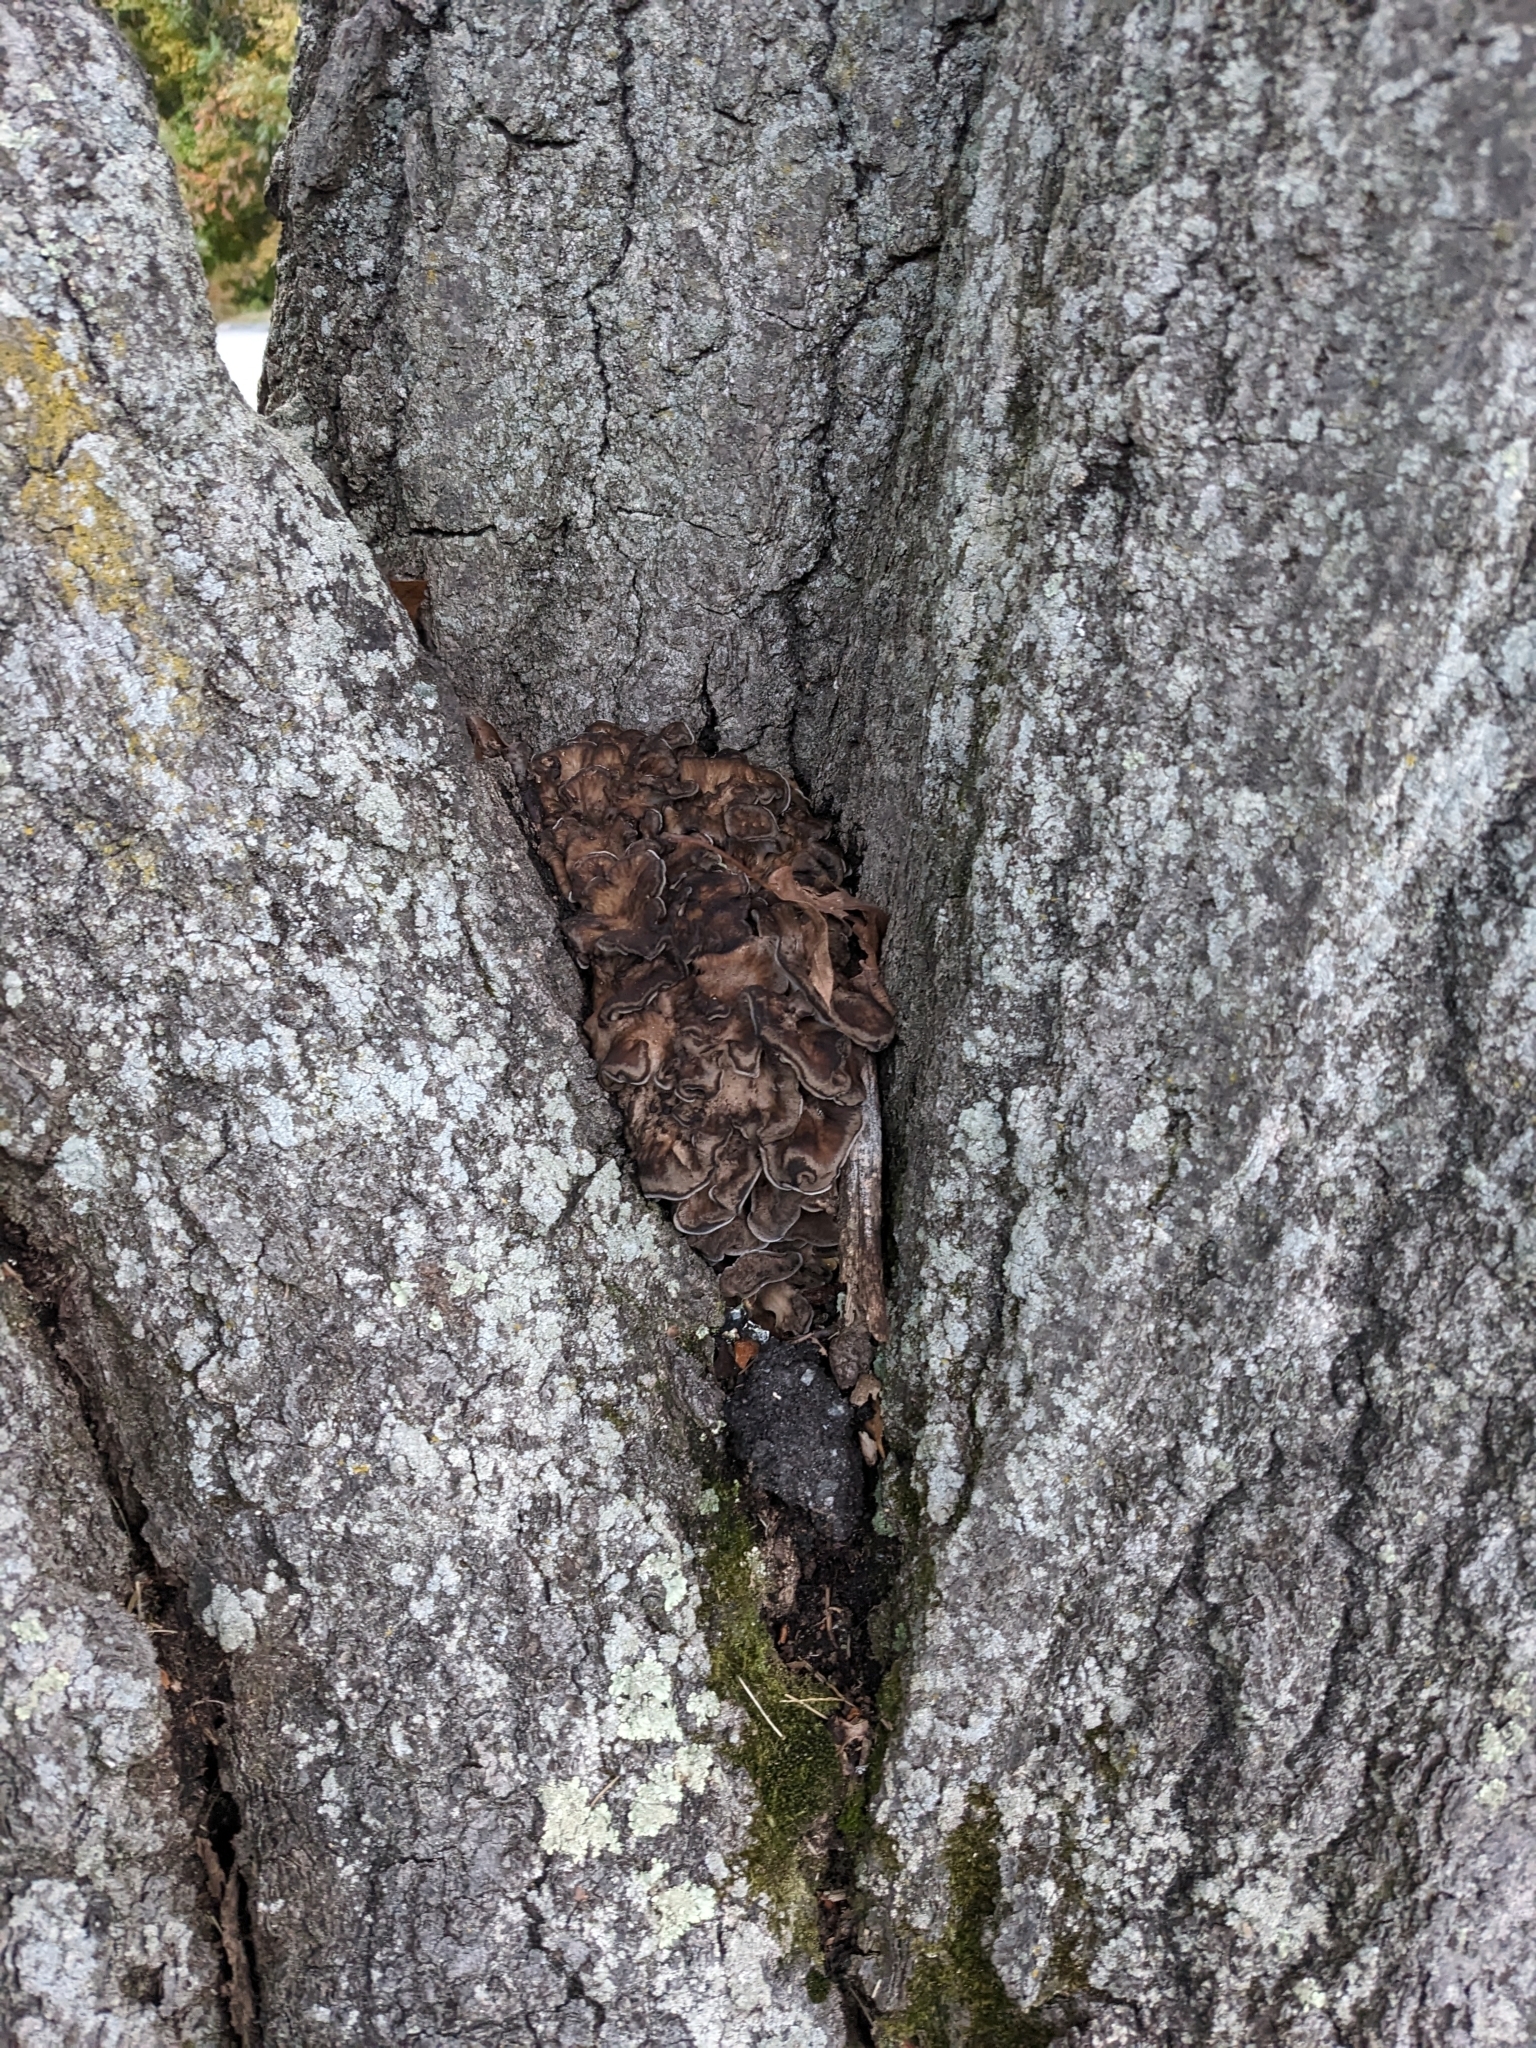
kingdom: Fungi
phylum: Basidiomycota
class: Agaricomycetes
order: Polyporales
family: Grifolaceae
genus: Grifola
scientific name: Grifola frondosa
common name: Hen of the woods
